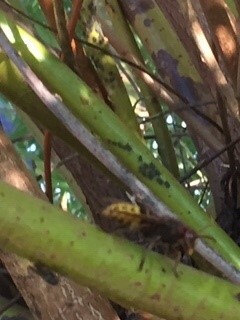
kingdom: Animalia
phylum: Arthropoda
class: Insecta
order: Hymenoptera
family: Vespidae
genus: Vespa
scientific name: Vespa crabro
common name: Hornet
